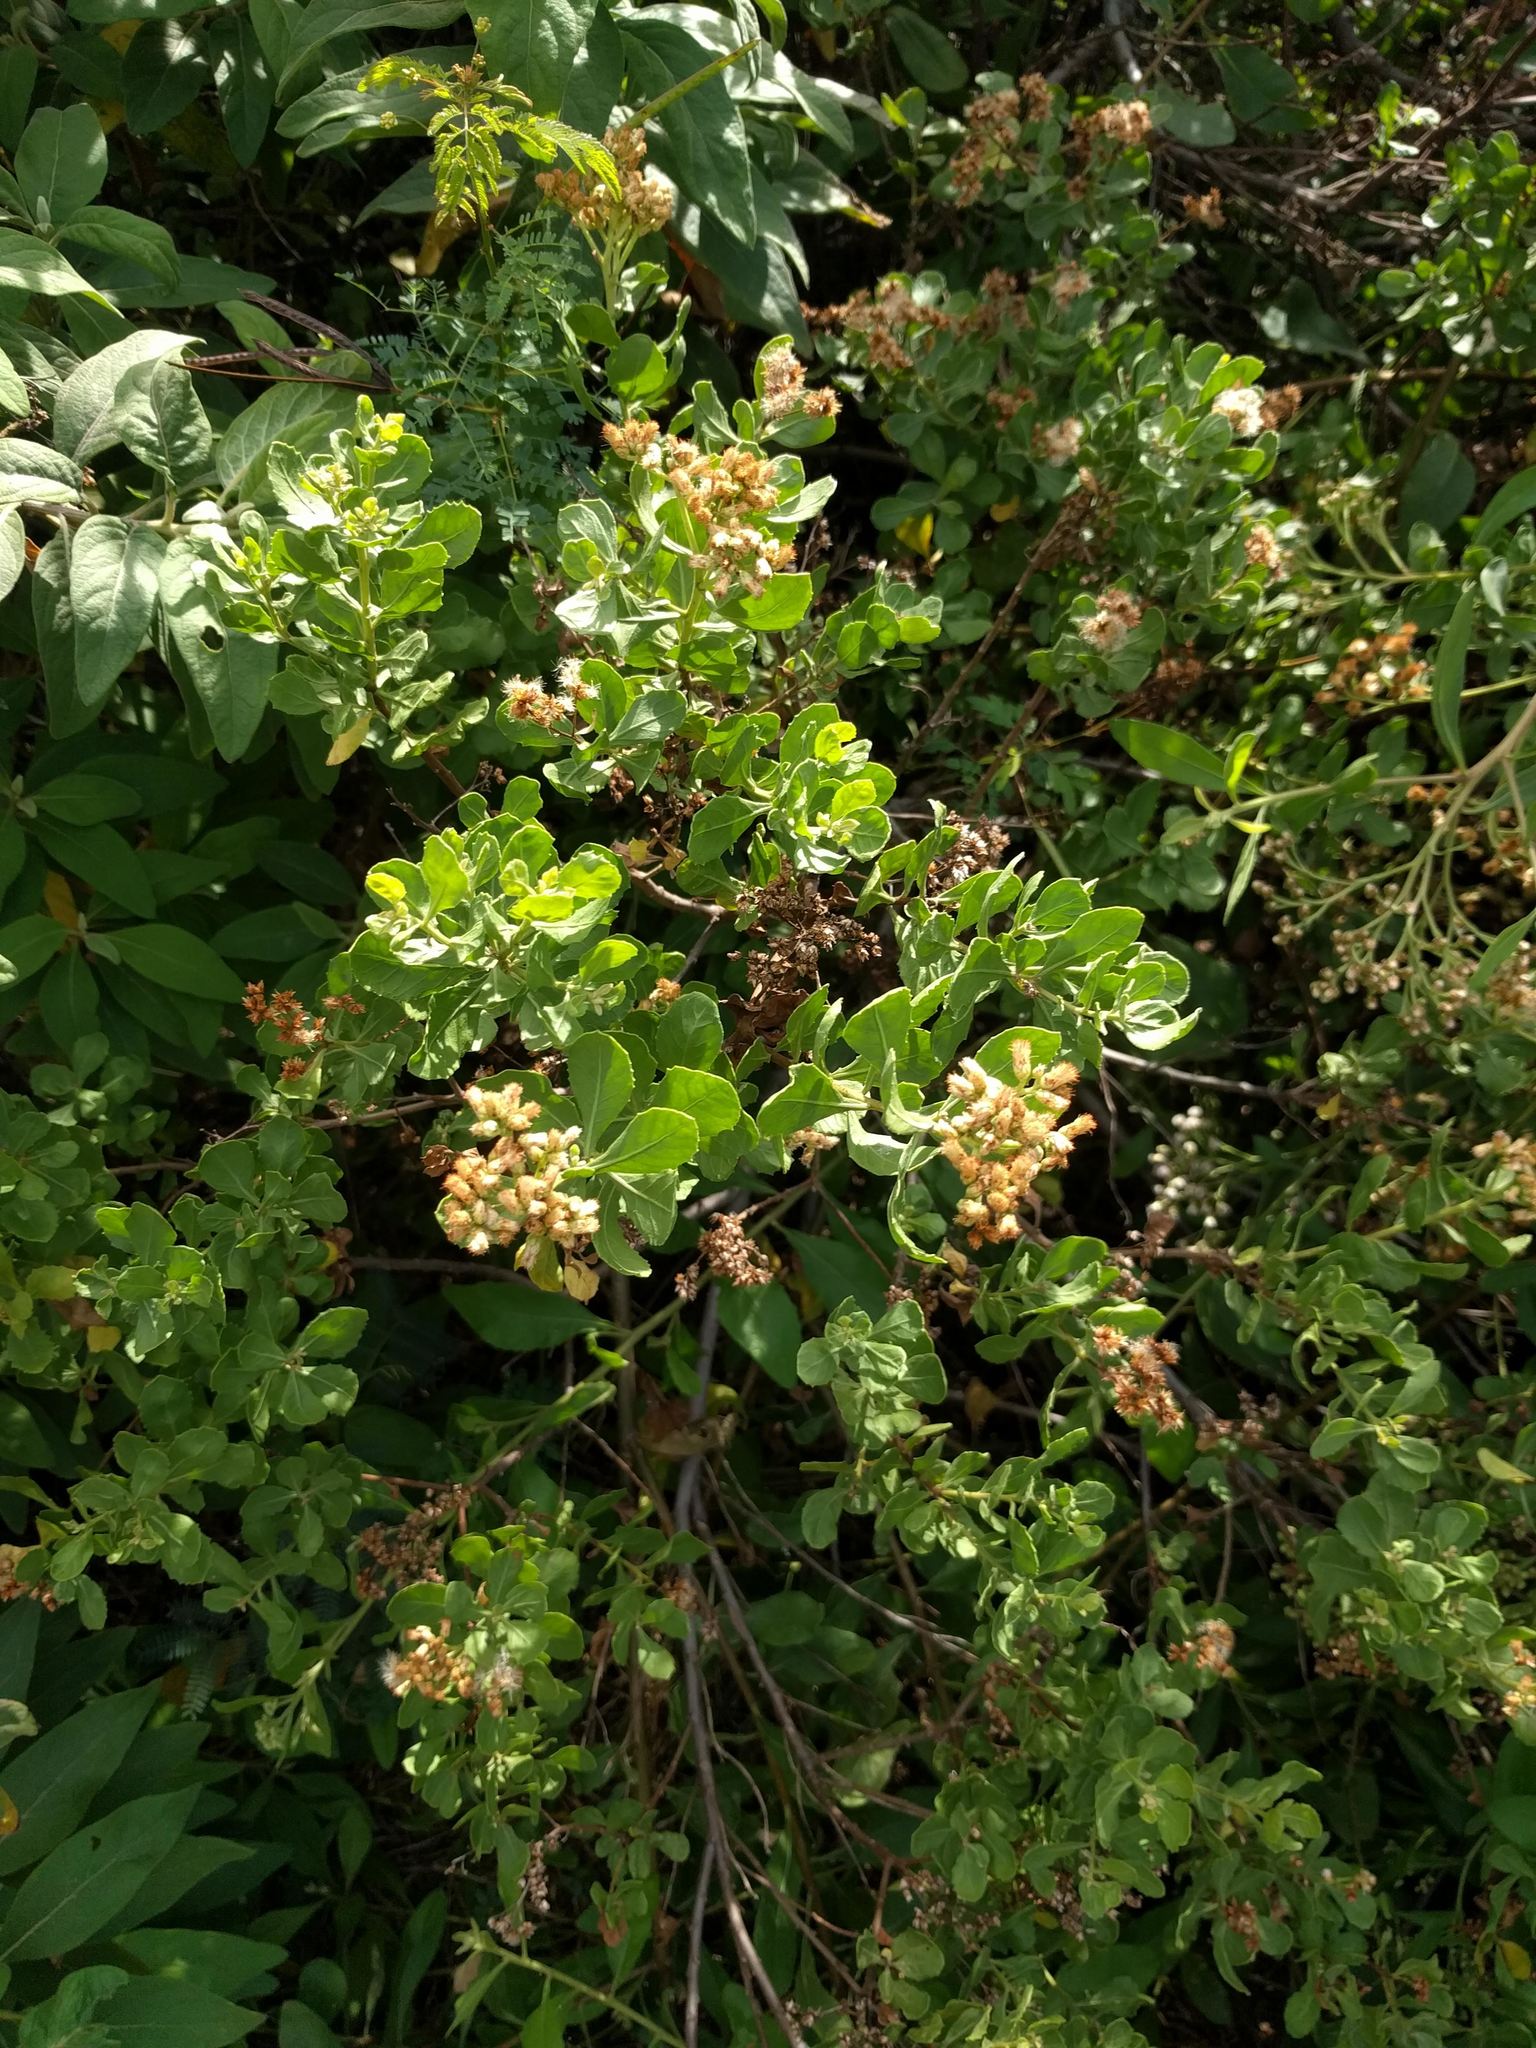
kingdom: Plantae
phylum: Tracheophyta
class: Magnoliopsida
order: Asterales
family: Asteraceae
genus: Pluchea
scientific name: Pluchea indica
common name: Indian fleabane
